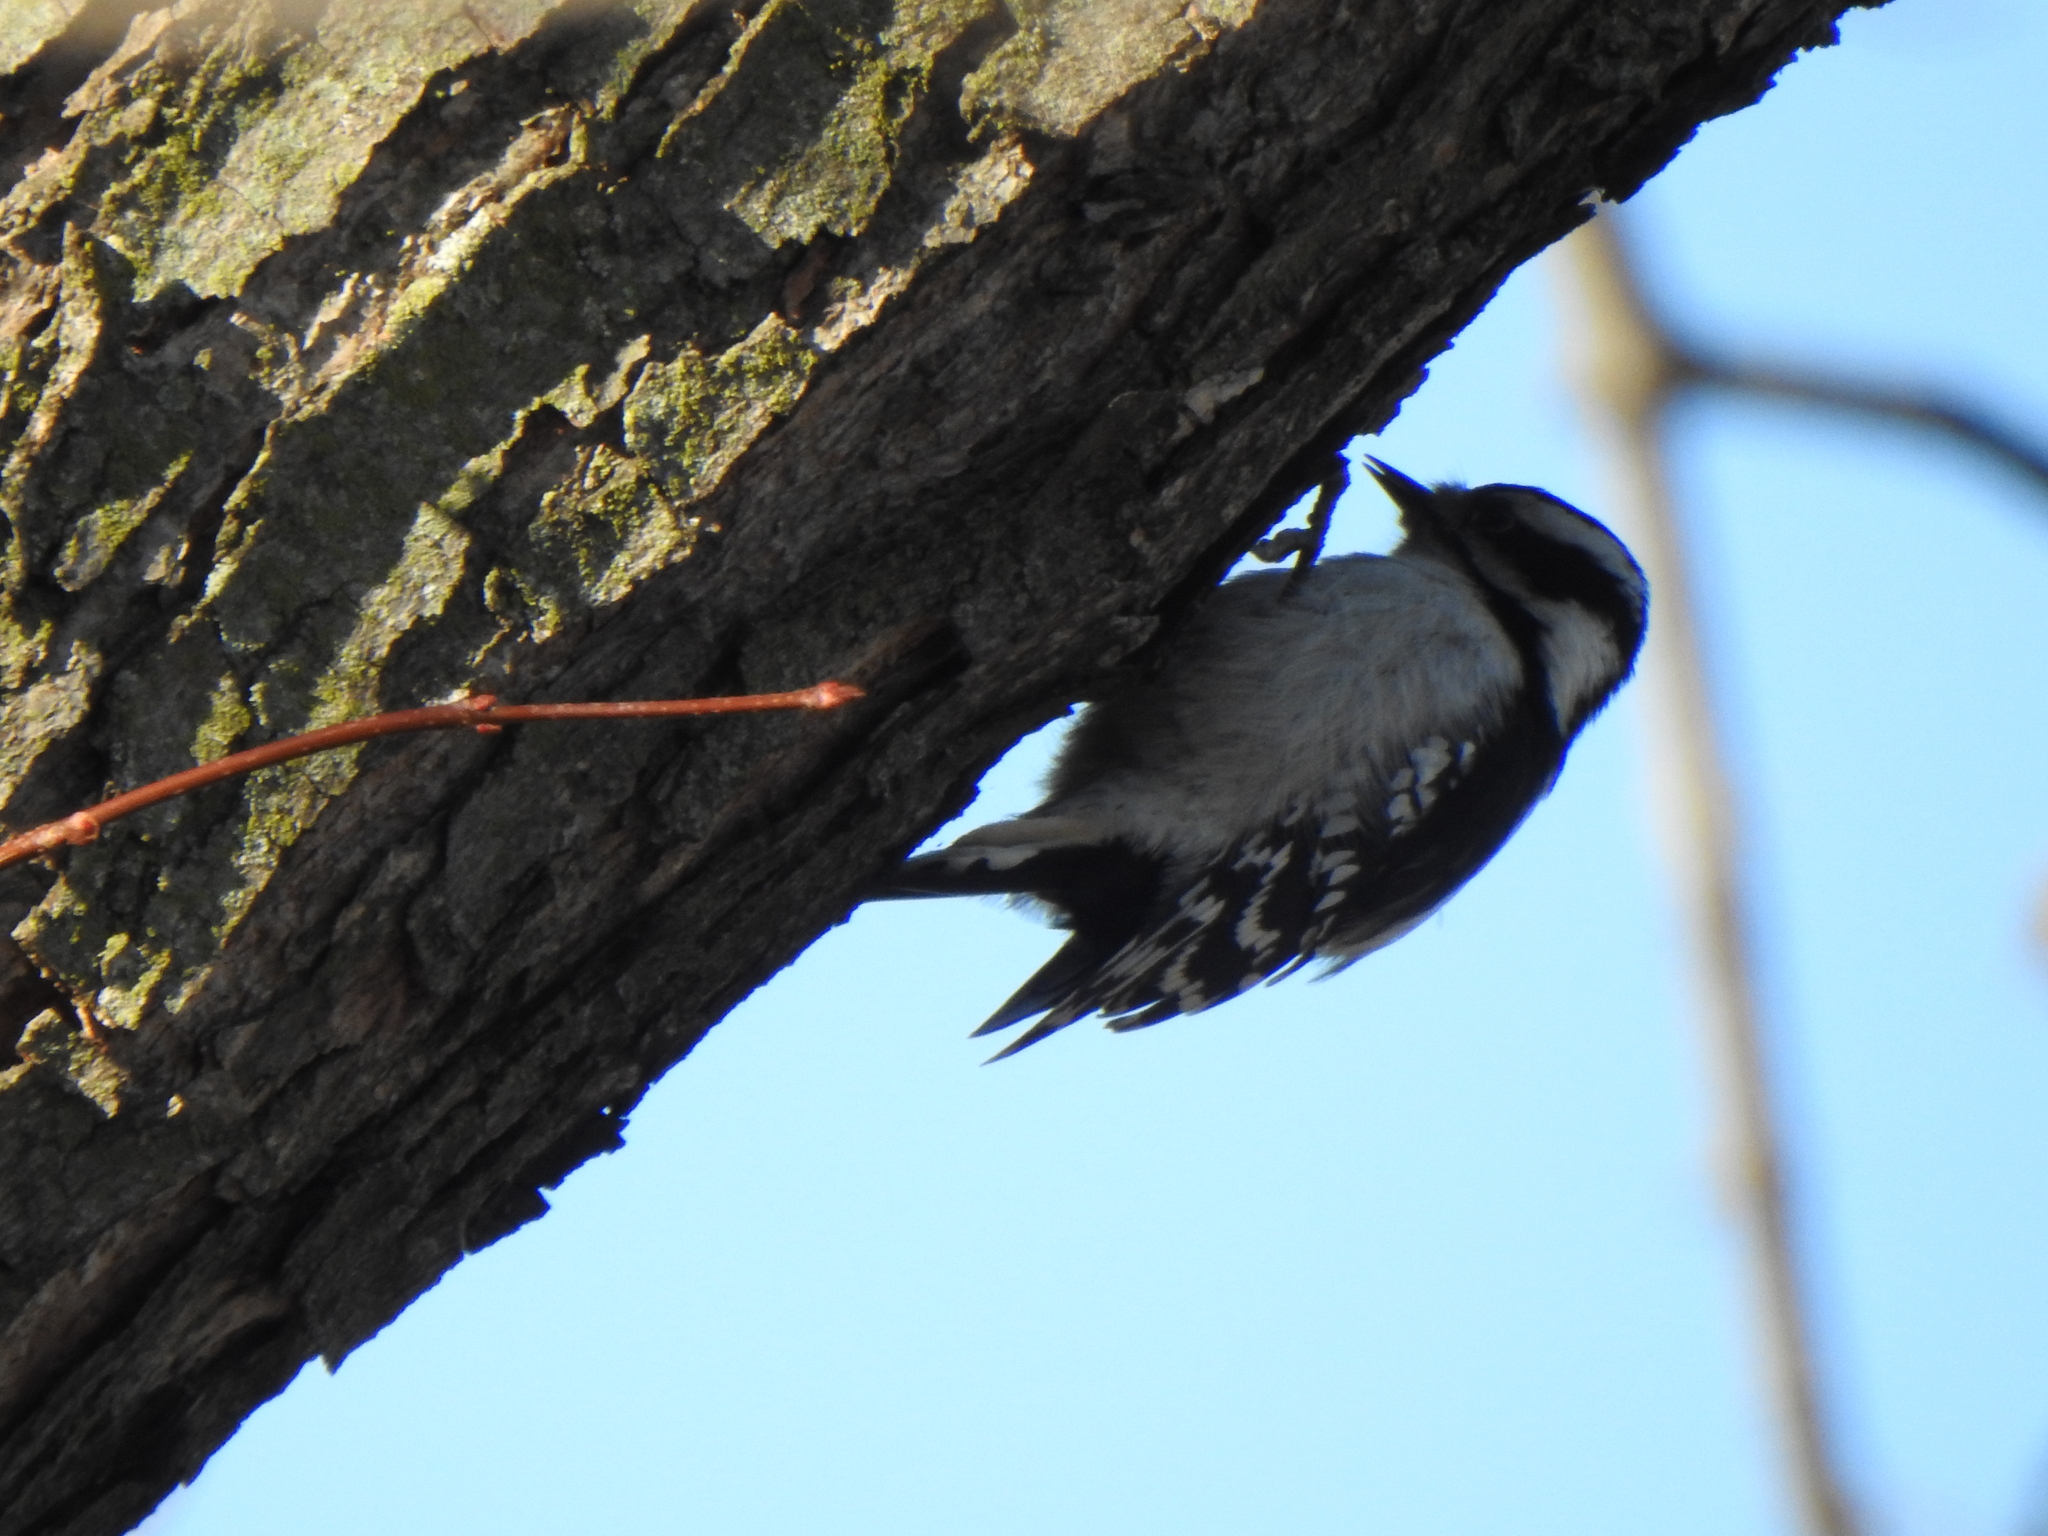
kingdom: Animalia
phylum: Chordata
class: Aves
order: Piciformes
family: Picidae
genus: Dryobates
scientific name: Dryobates pubescens
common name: Downy woodpecker
